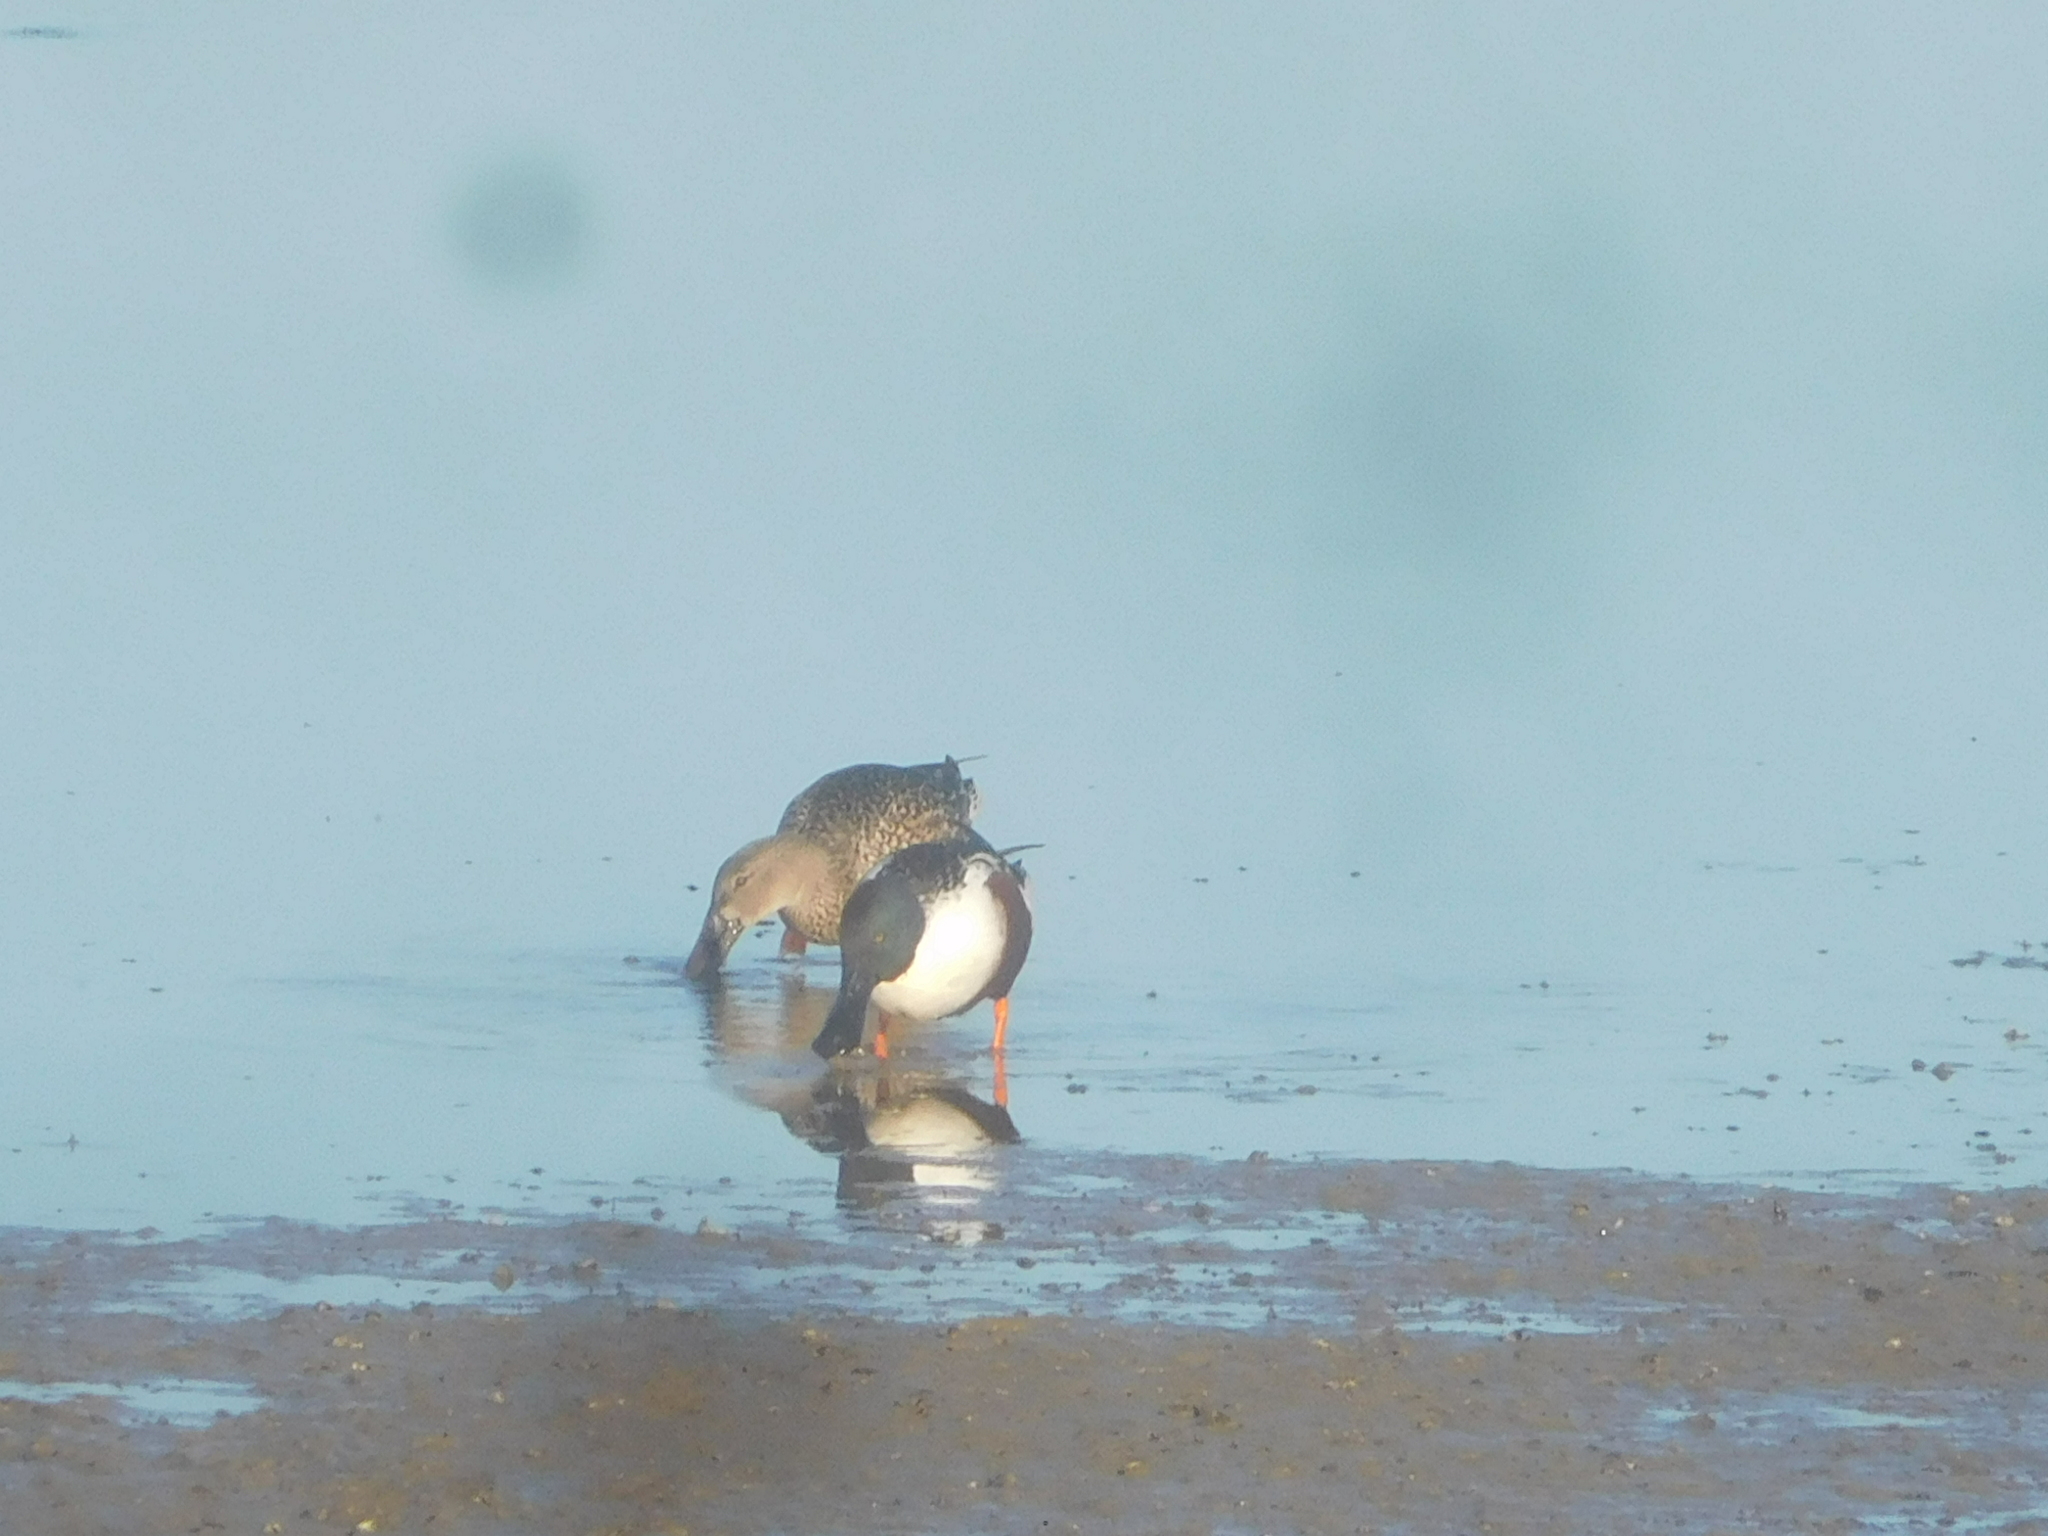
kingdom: Animalia
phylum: Chordata
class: Aves
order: Anseriformes
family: Anatidae
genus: Spatula
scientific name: Spatula clypeata
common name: Northern shoveler
